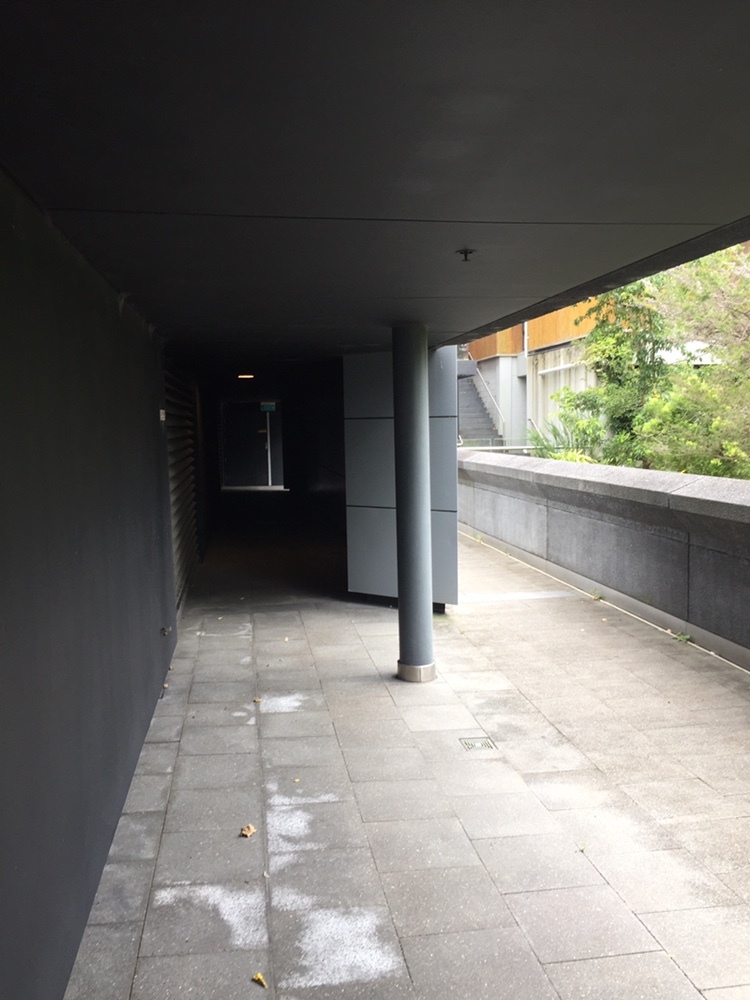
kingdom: Animalia
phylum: Arthropoda
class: Insecta
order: Lepidoptera
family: Geometridae
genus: Cyclophora
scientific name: Cyclophora obstataria
